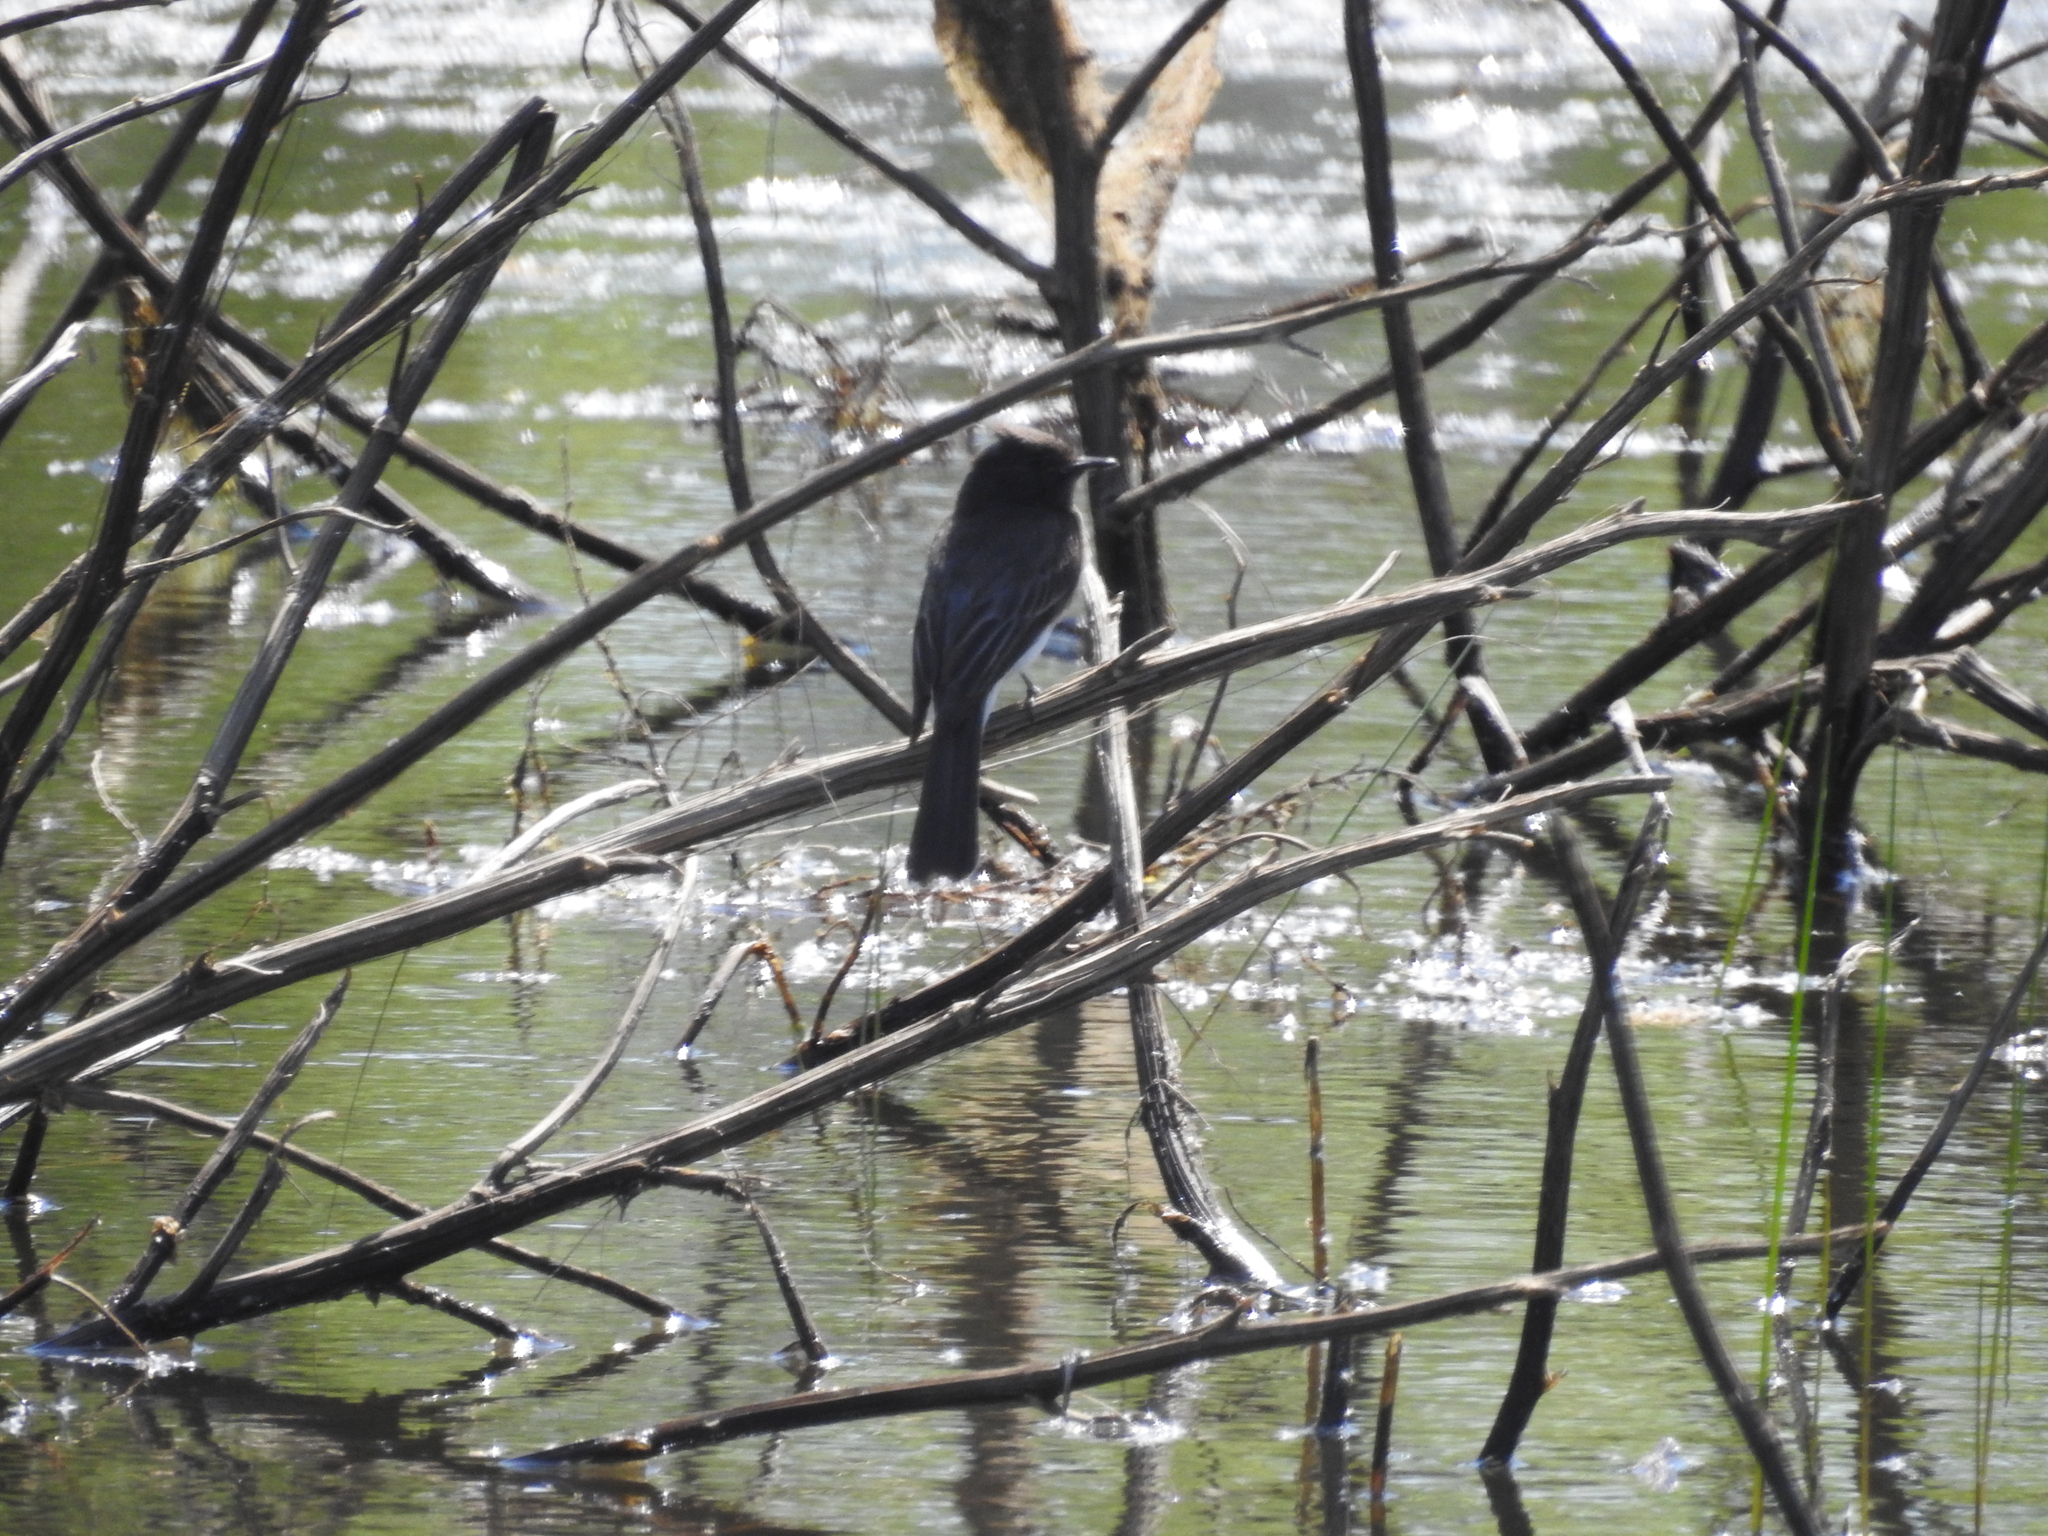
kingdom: Animalia
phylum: Chordata
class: Aves
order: Passeriformes
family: Tyrannidae
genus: Sayornis
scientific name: Sayornis nigricans
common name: Black phoebe
